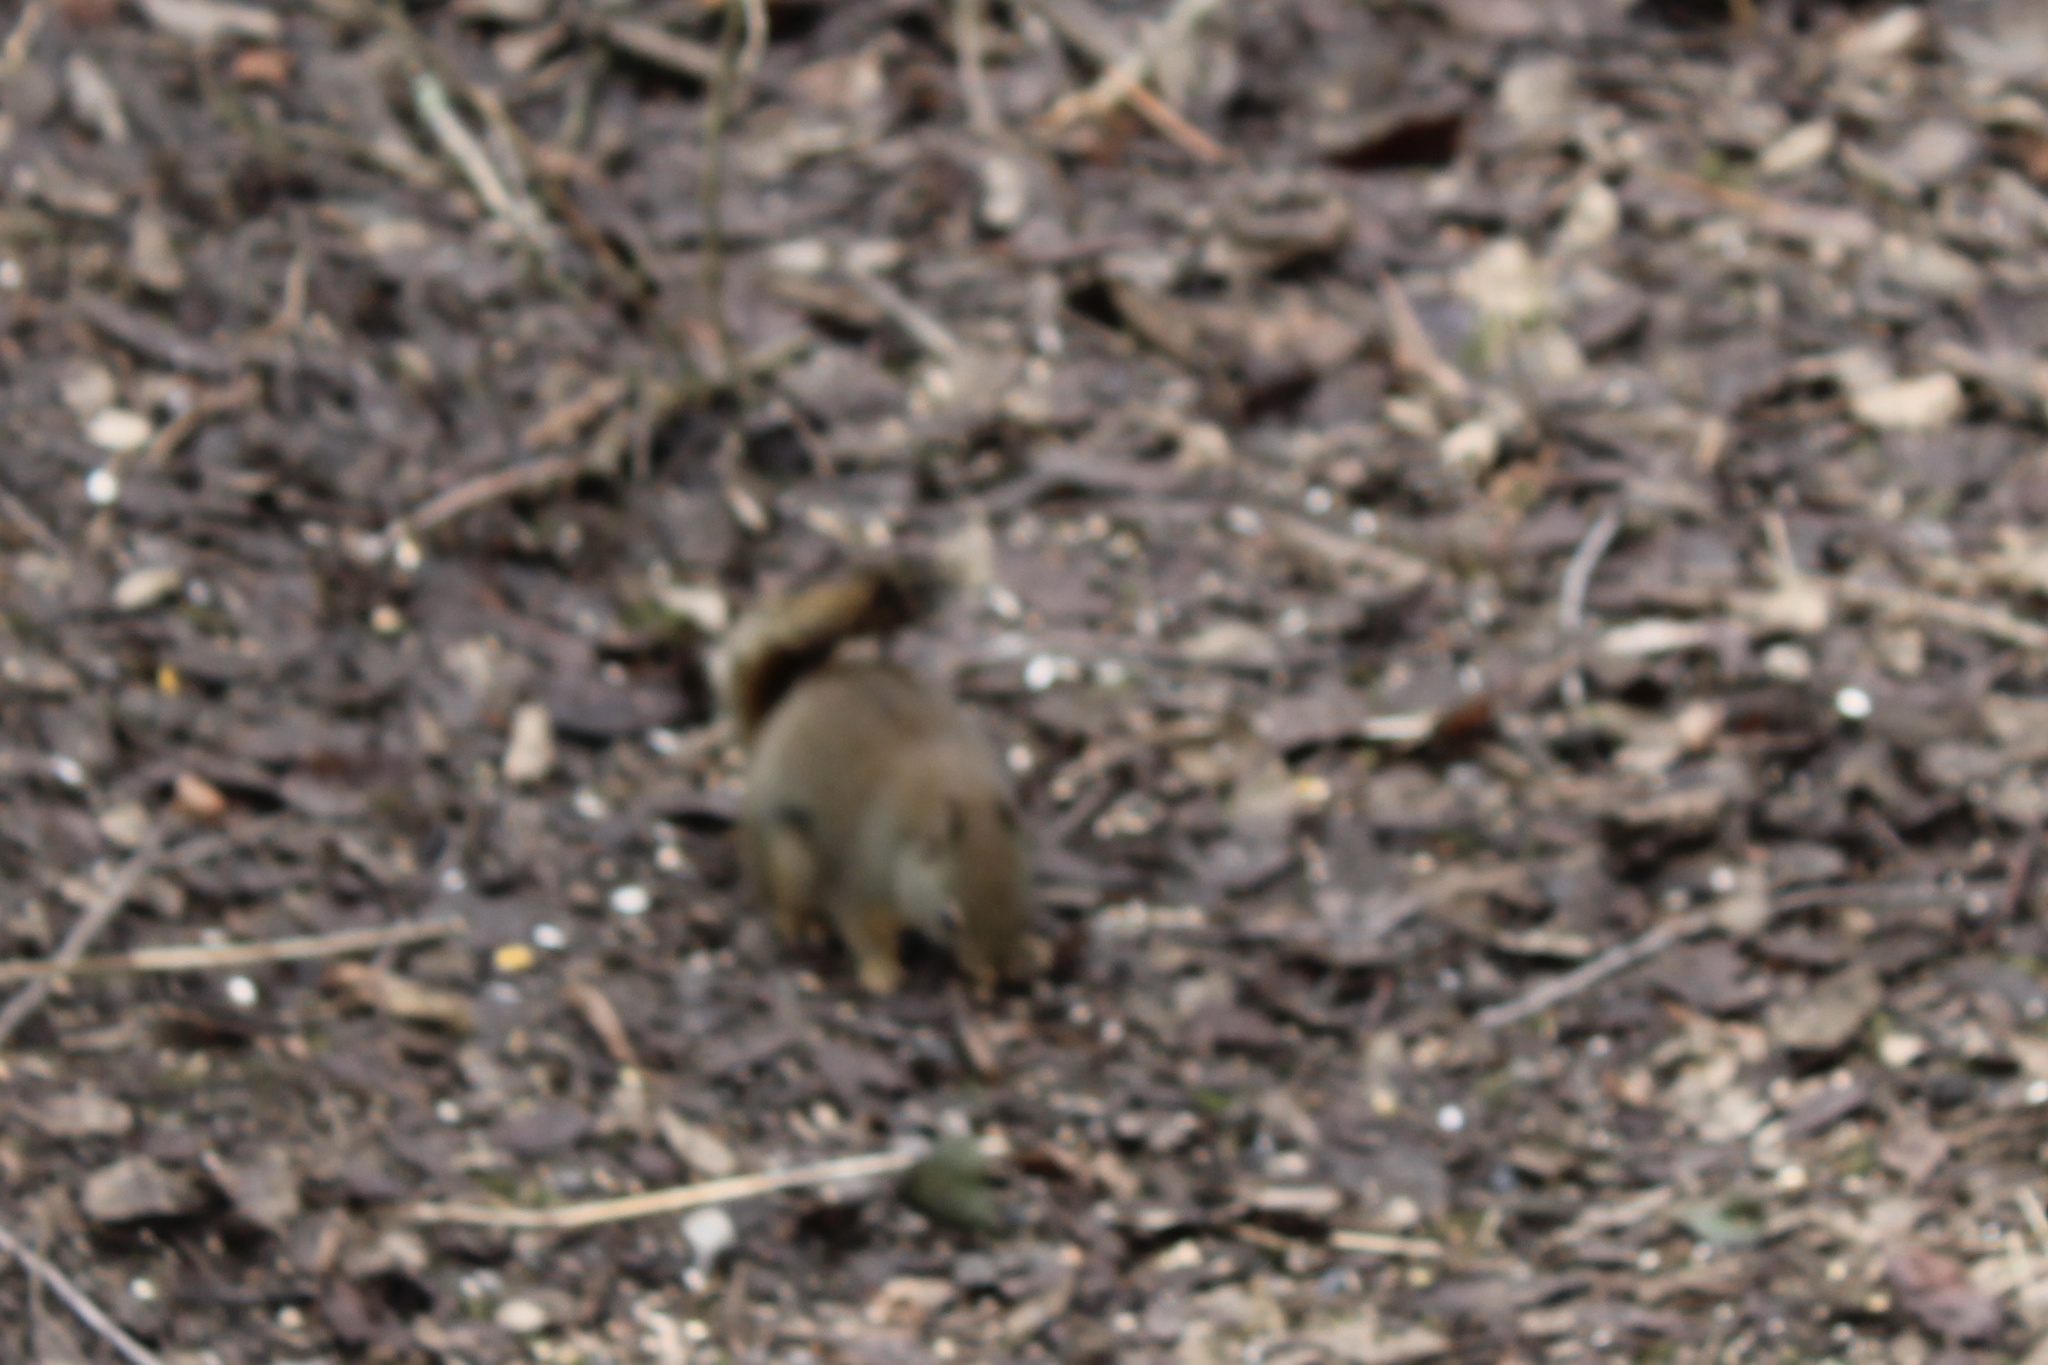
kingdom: Animalia
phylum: Chordata
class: Mammalia
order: Rodentia
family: Sciuridae
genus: Tamiasciurus
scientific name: Tamiasciurus douglasii
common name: Douglas's squirrel
